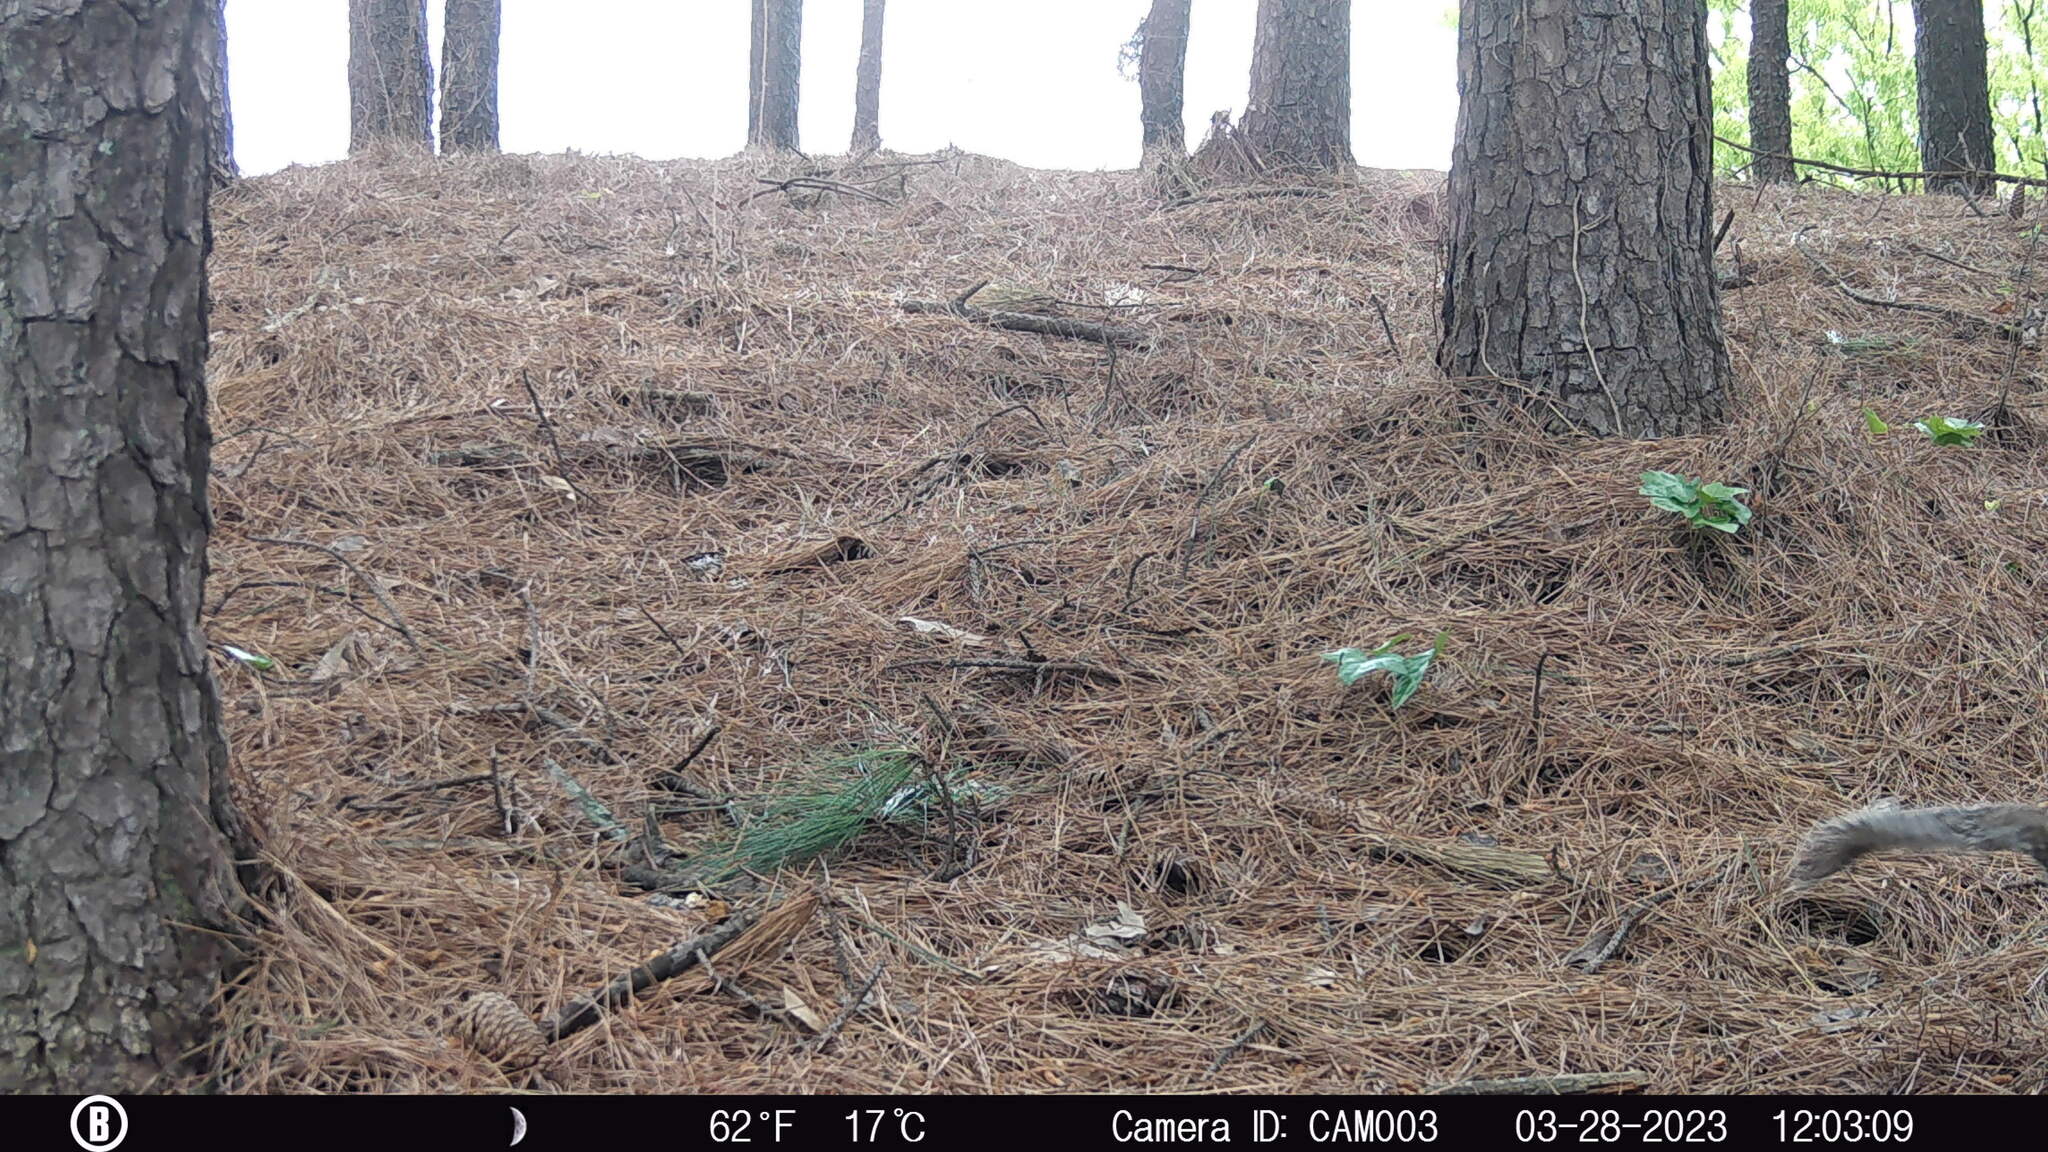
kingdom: Animalia
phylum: Chordata
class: Mammalia
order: Rodentia
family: Sciuridae
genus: Sciurus
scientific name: Sciurus carolinensis
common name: Eastern gray squirrel
